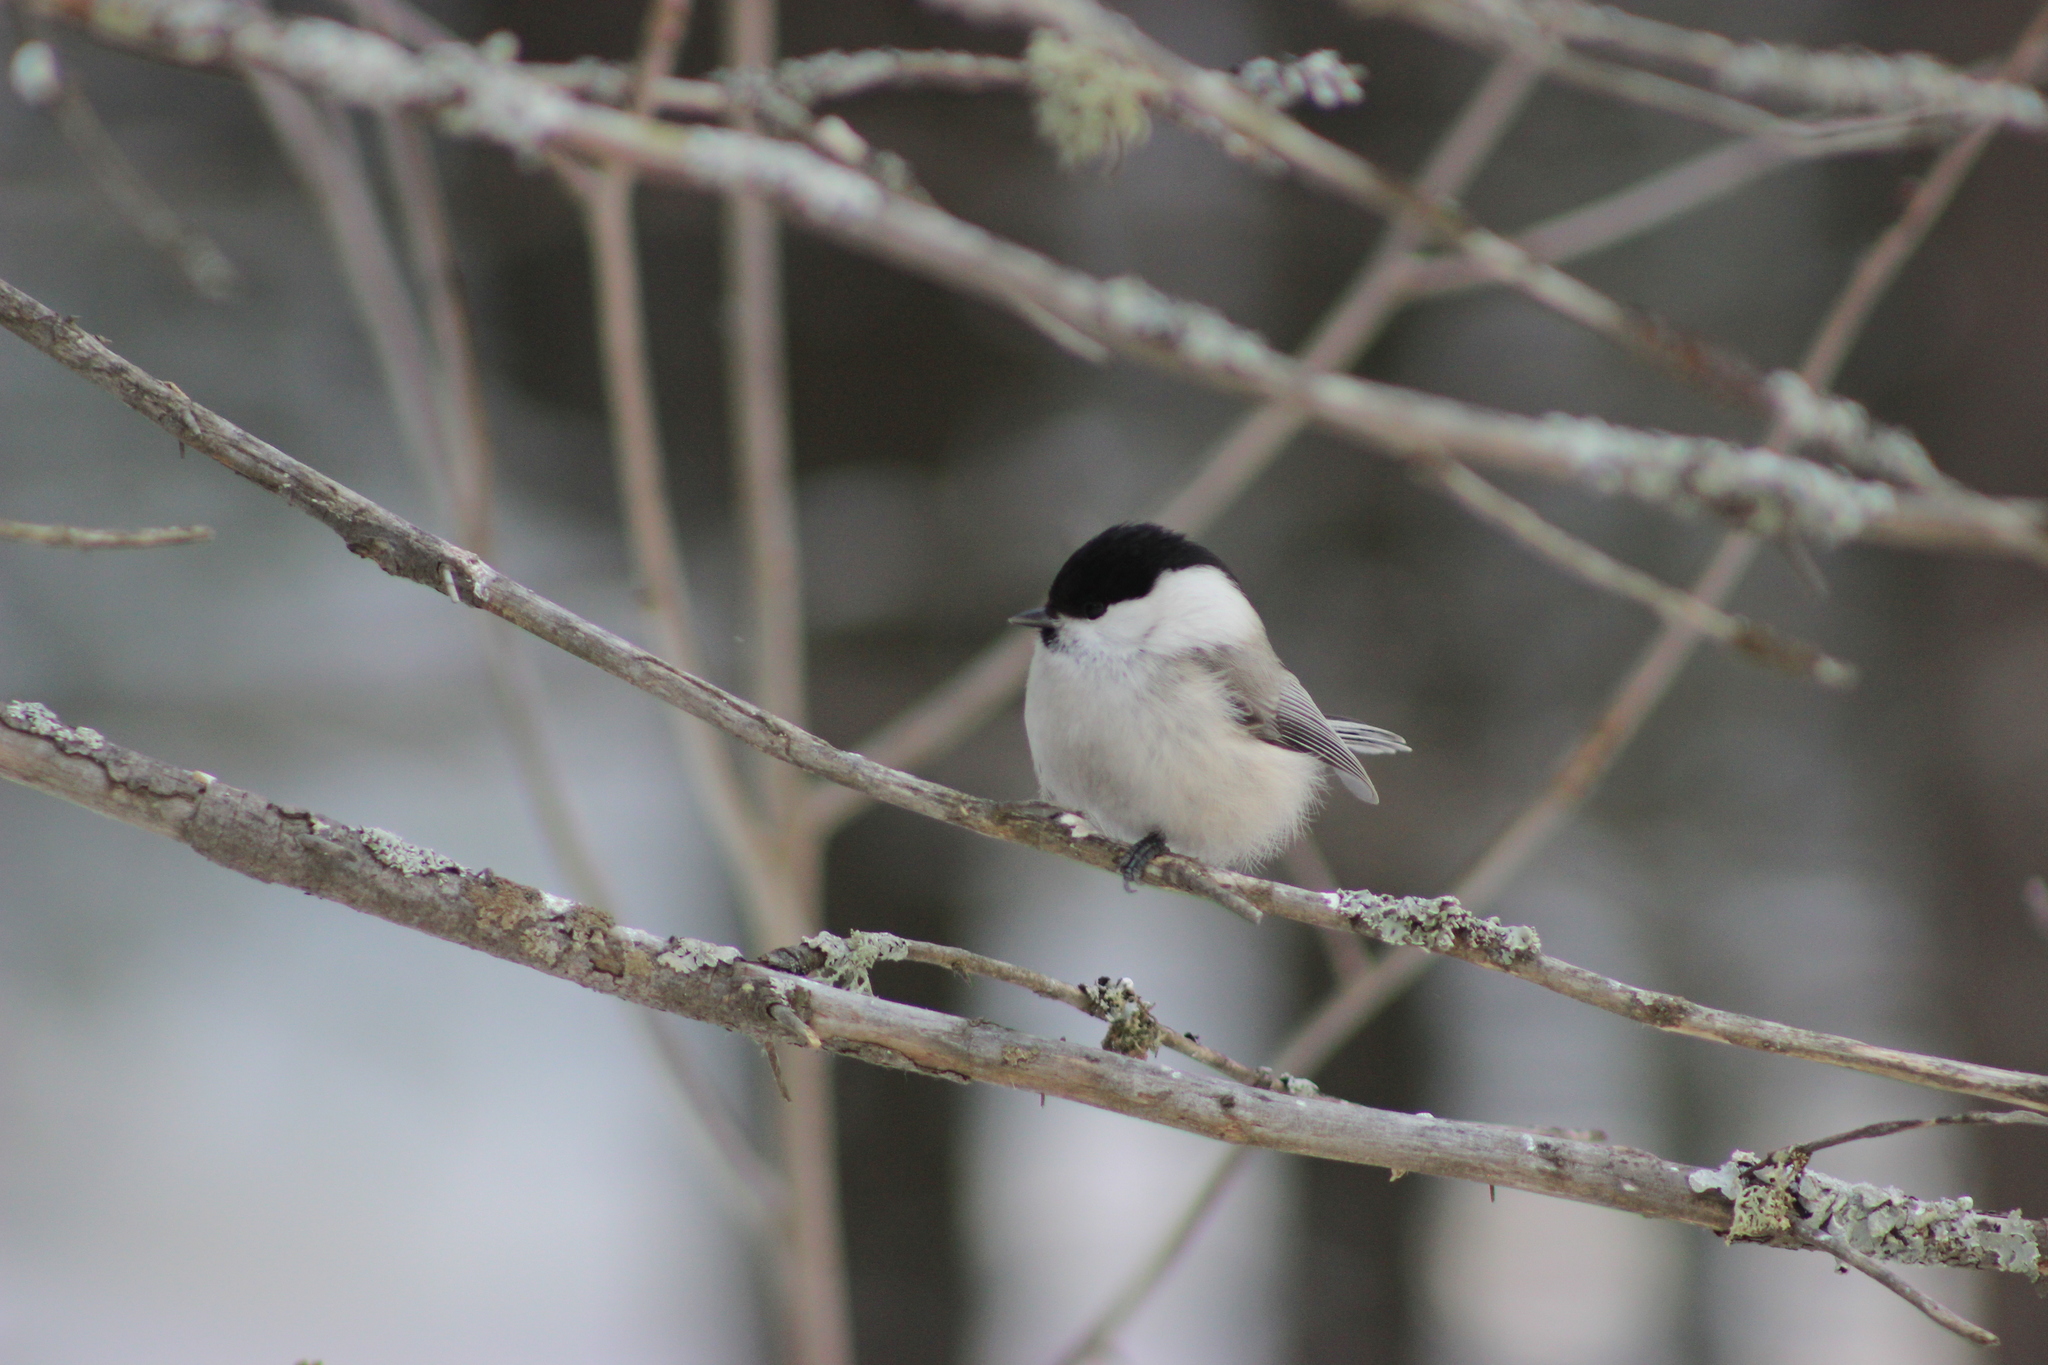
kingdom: Animalia
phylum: Chordata
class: Aves
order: Passeriformes
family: Paridae
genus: Poecile
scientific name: Poecile montanus
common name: Willow tit
